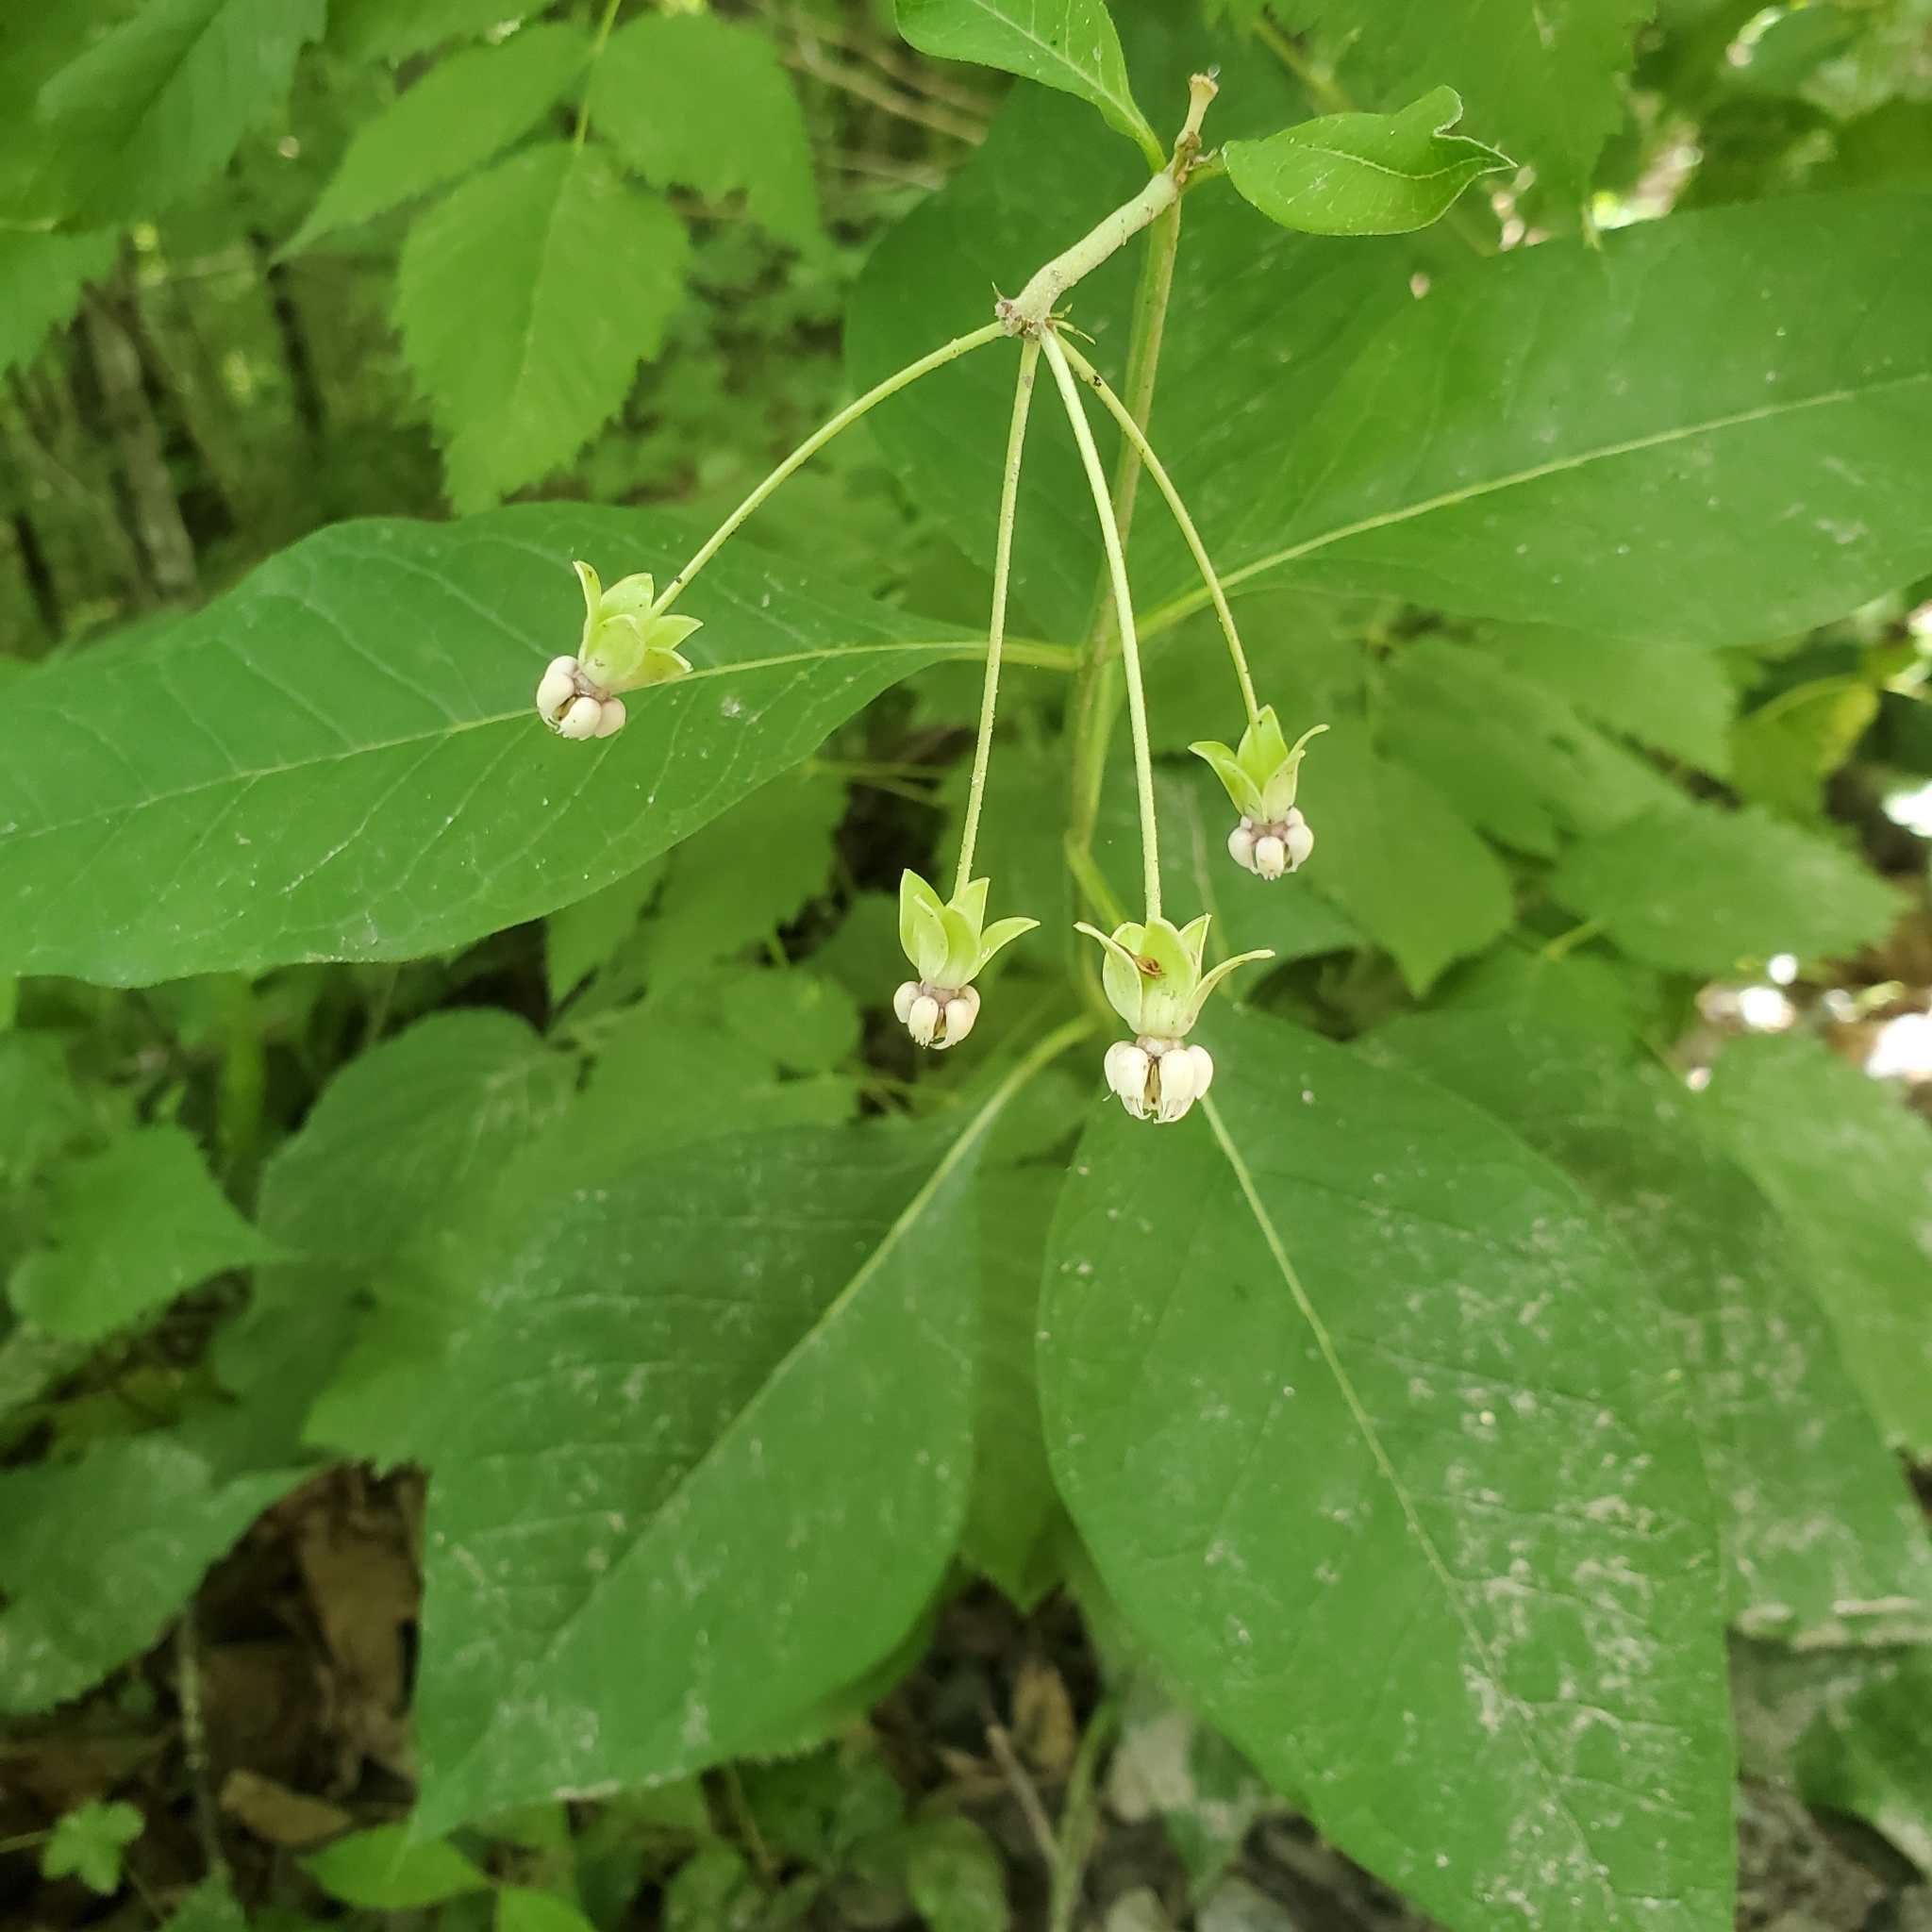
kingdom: Plantae
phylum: Tracheophyta
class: Magnoliopsida
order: Gentianales
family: Apocynaceae
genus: Asclepias
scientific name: Asclepias exaltata
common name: Poke milkweed
